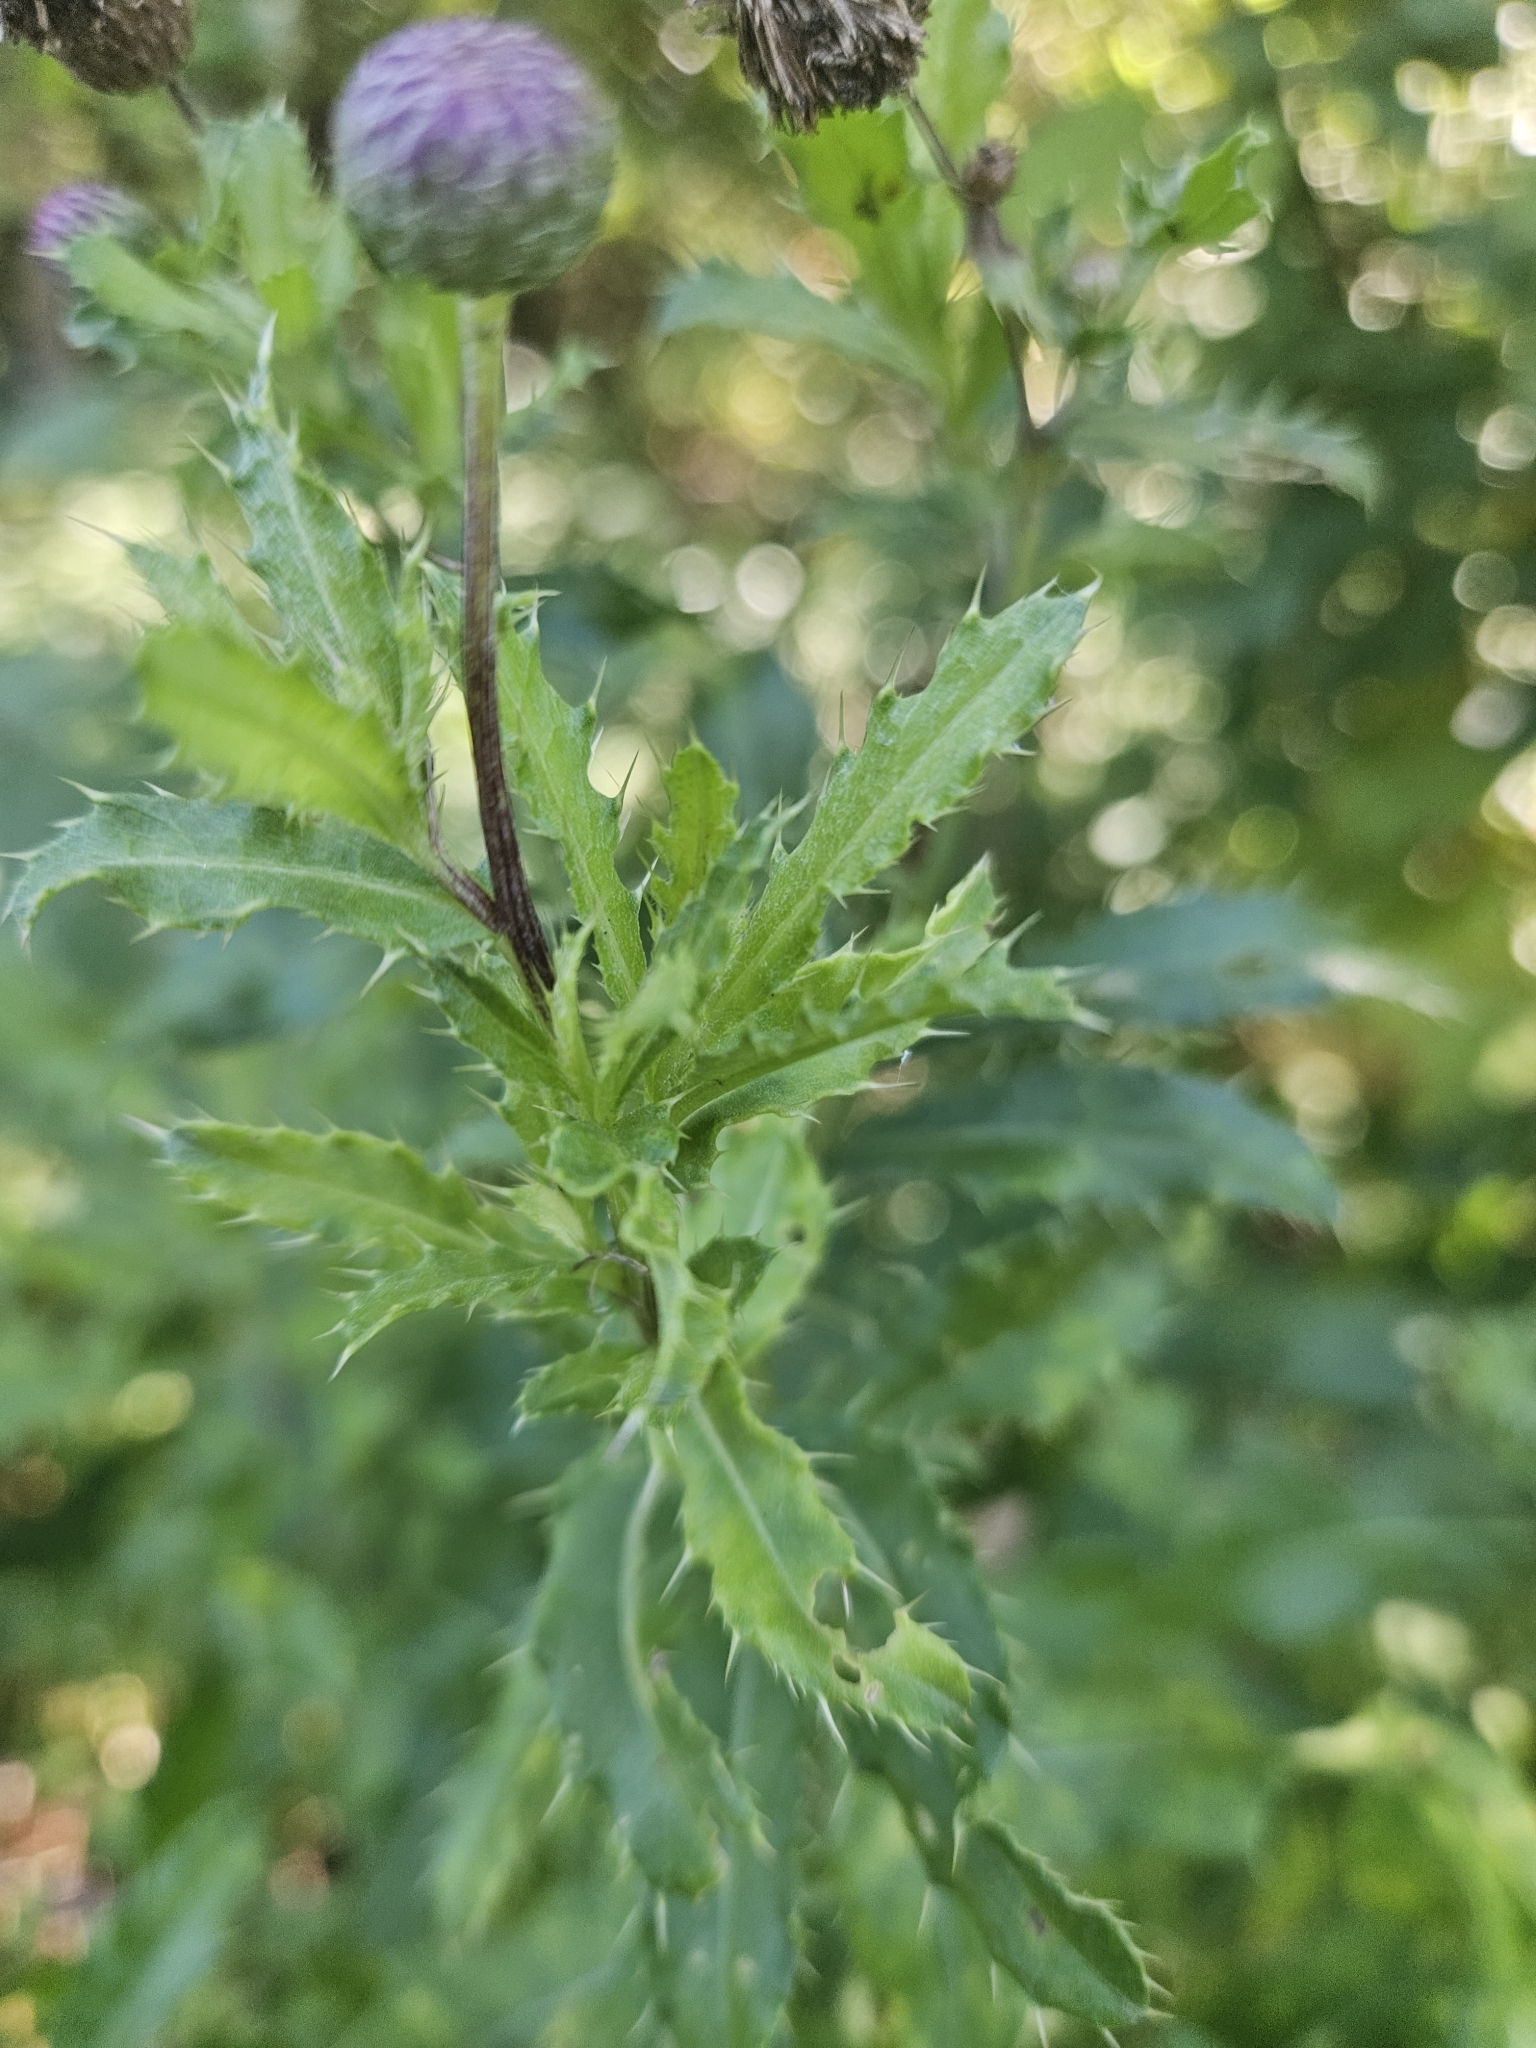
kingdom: Plantae
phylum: Tracheophyta
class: Magnoliopsida
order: Asterales
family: Asteraceae
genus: Cirsium
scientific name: Cirsium arvense
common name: Creeping thistle
